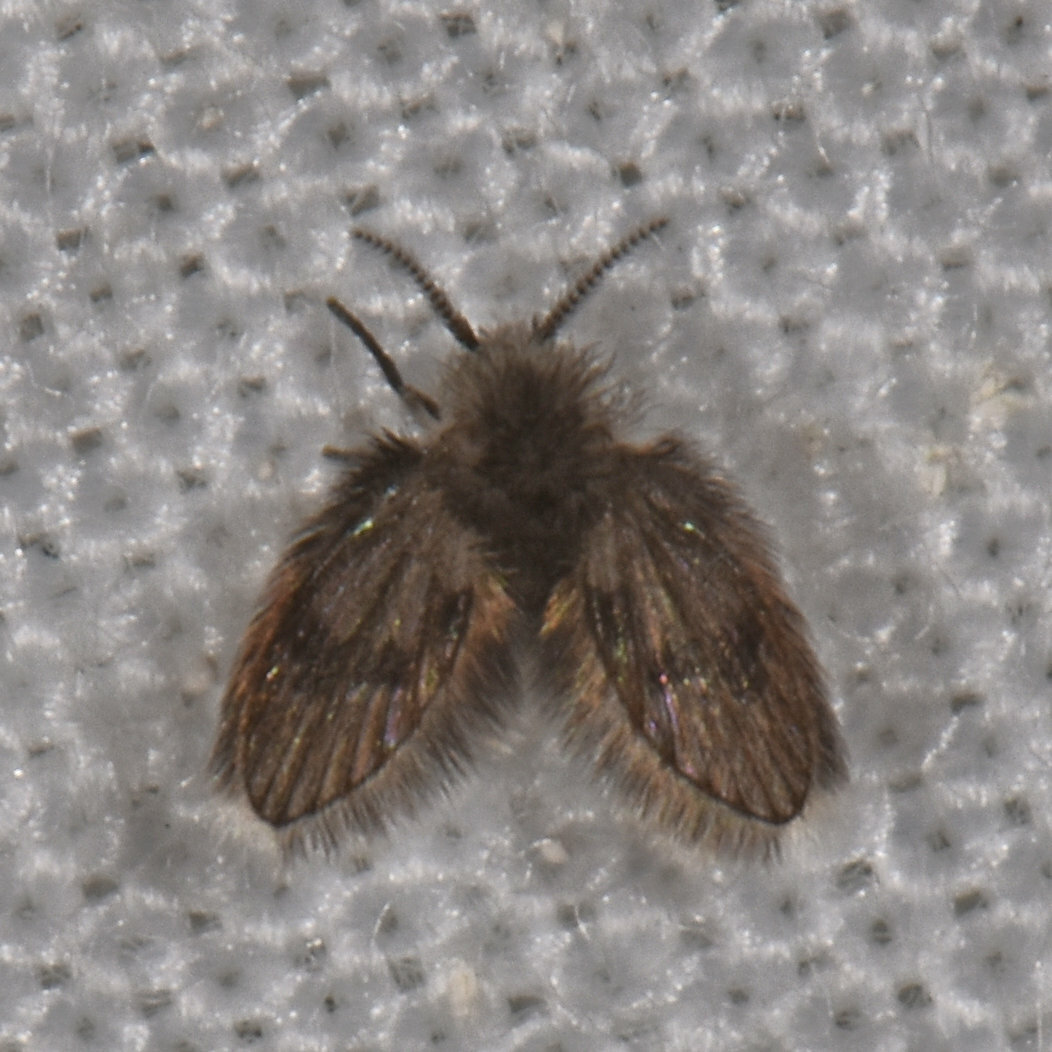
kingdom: Animalia
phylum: Arthropoda
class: Insecta
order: Diptera
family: Psychodidae
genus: Lepiseodina
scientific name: Lepiseodina
